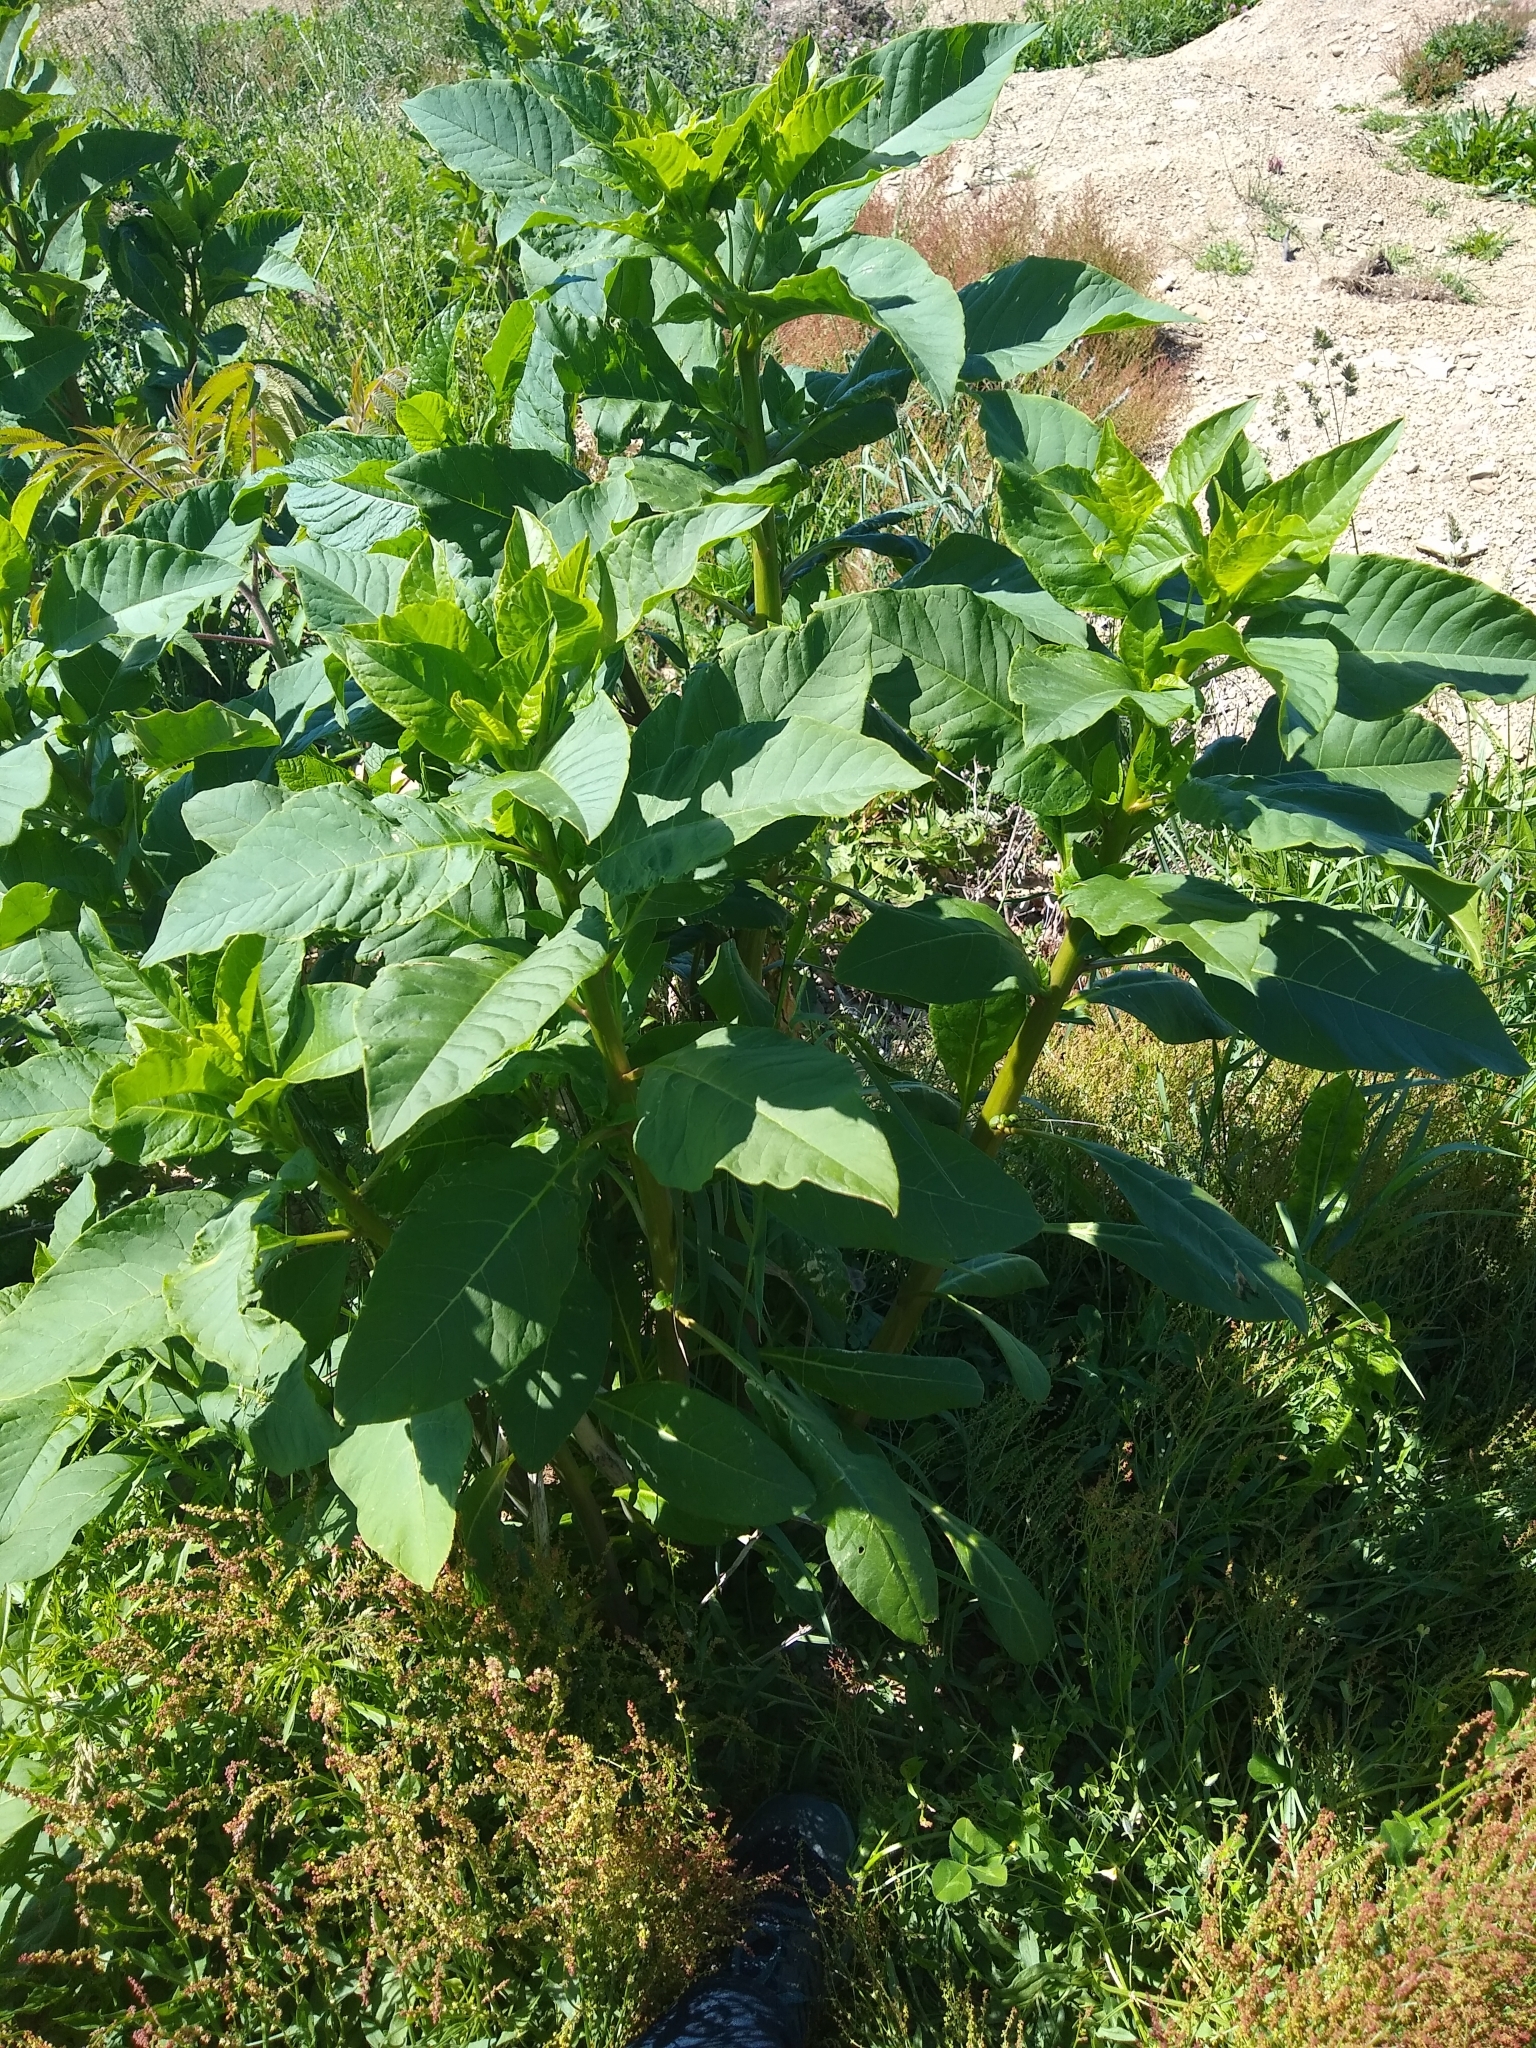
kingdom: Plantae
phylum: Tracheophyta
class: Magnoliopsida
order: Caryophyllales
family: Phytolaccaceae
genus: Phytolacca
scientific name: Phytolacca americana
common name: American pokeweed
